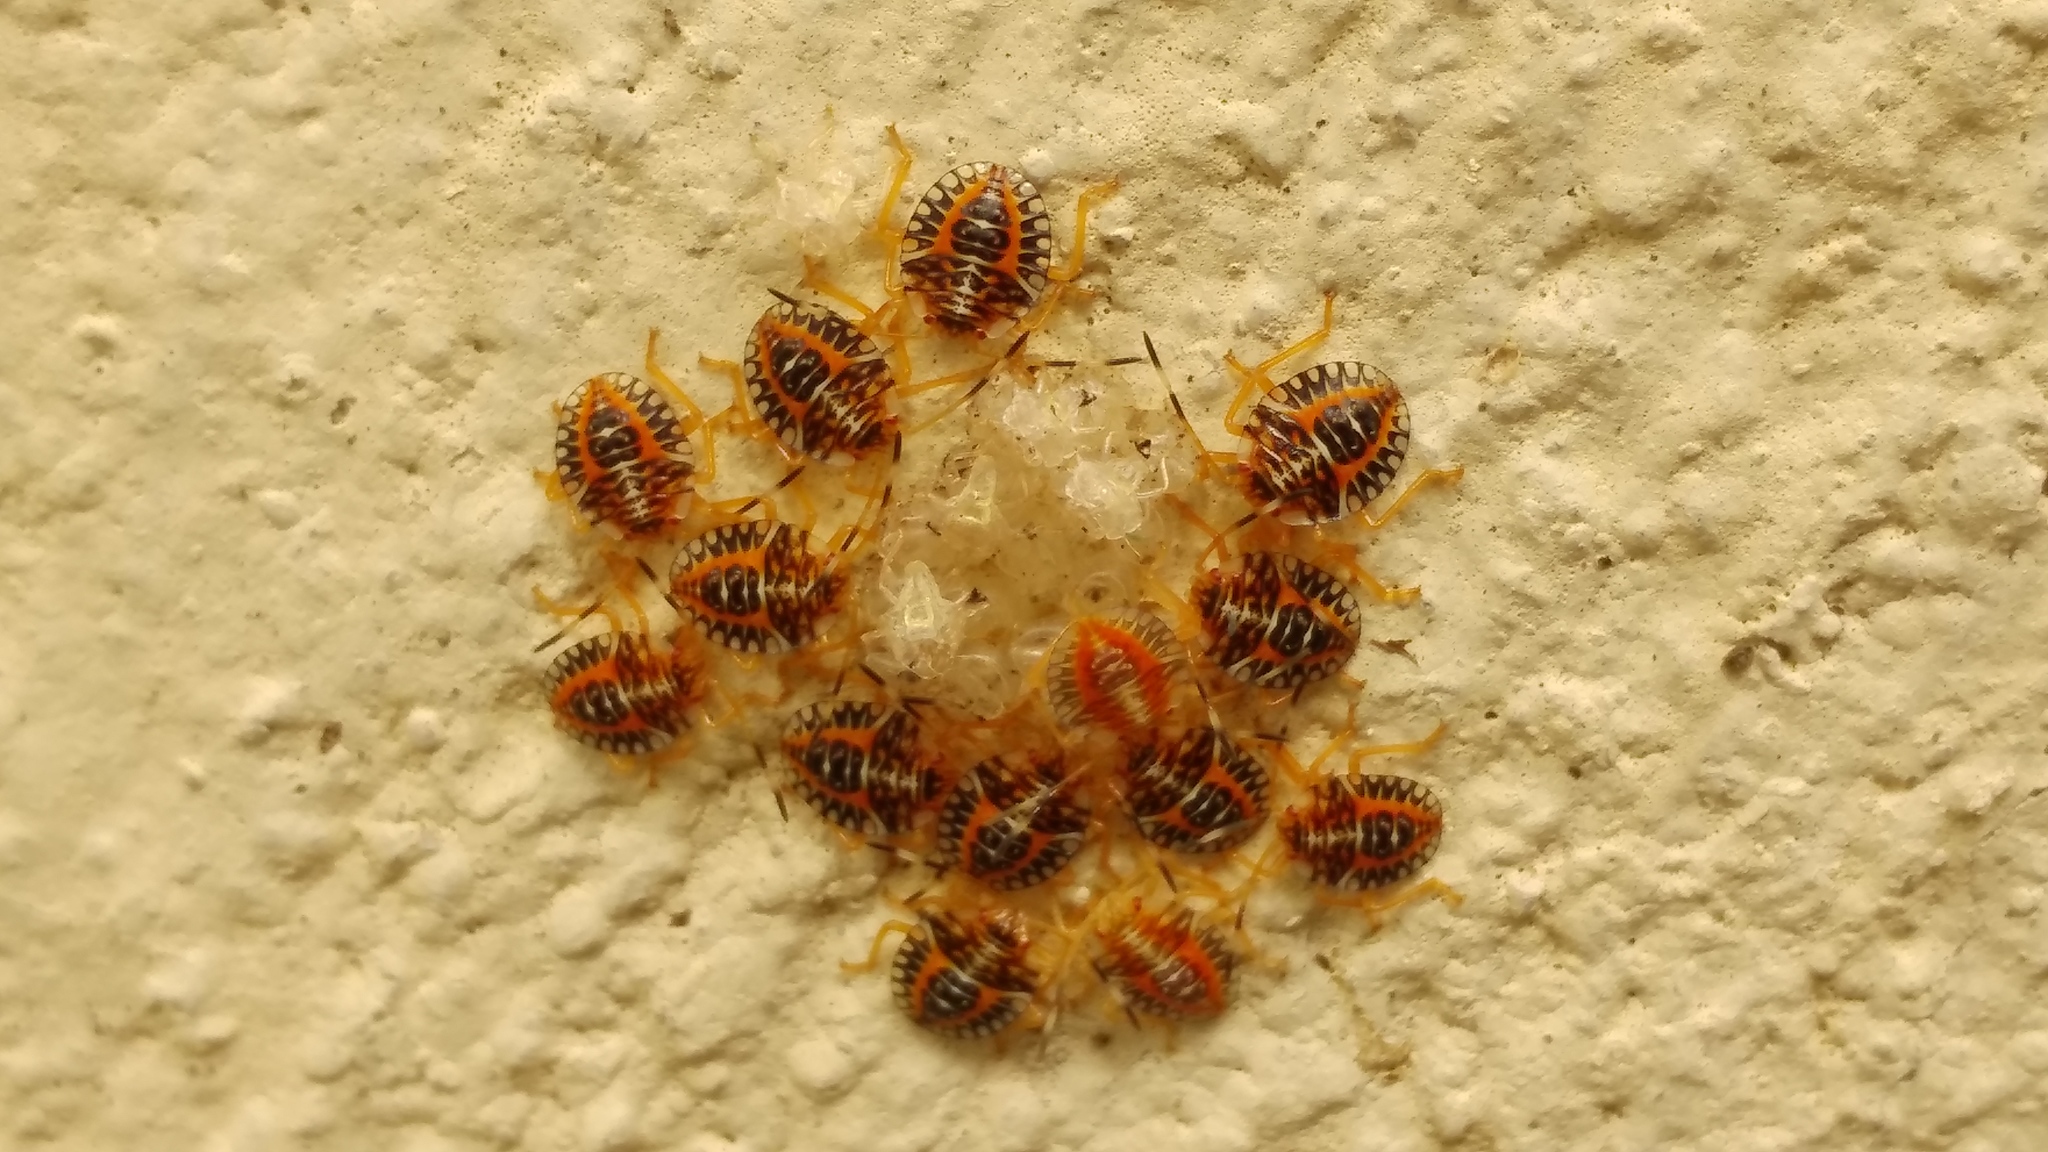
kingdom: Animalia
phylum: Arthropoda
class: Insecta
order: Hemiptera
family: Pentatomidae
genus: Edessa
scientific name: Edessa reticulata
